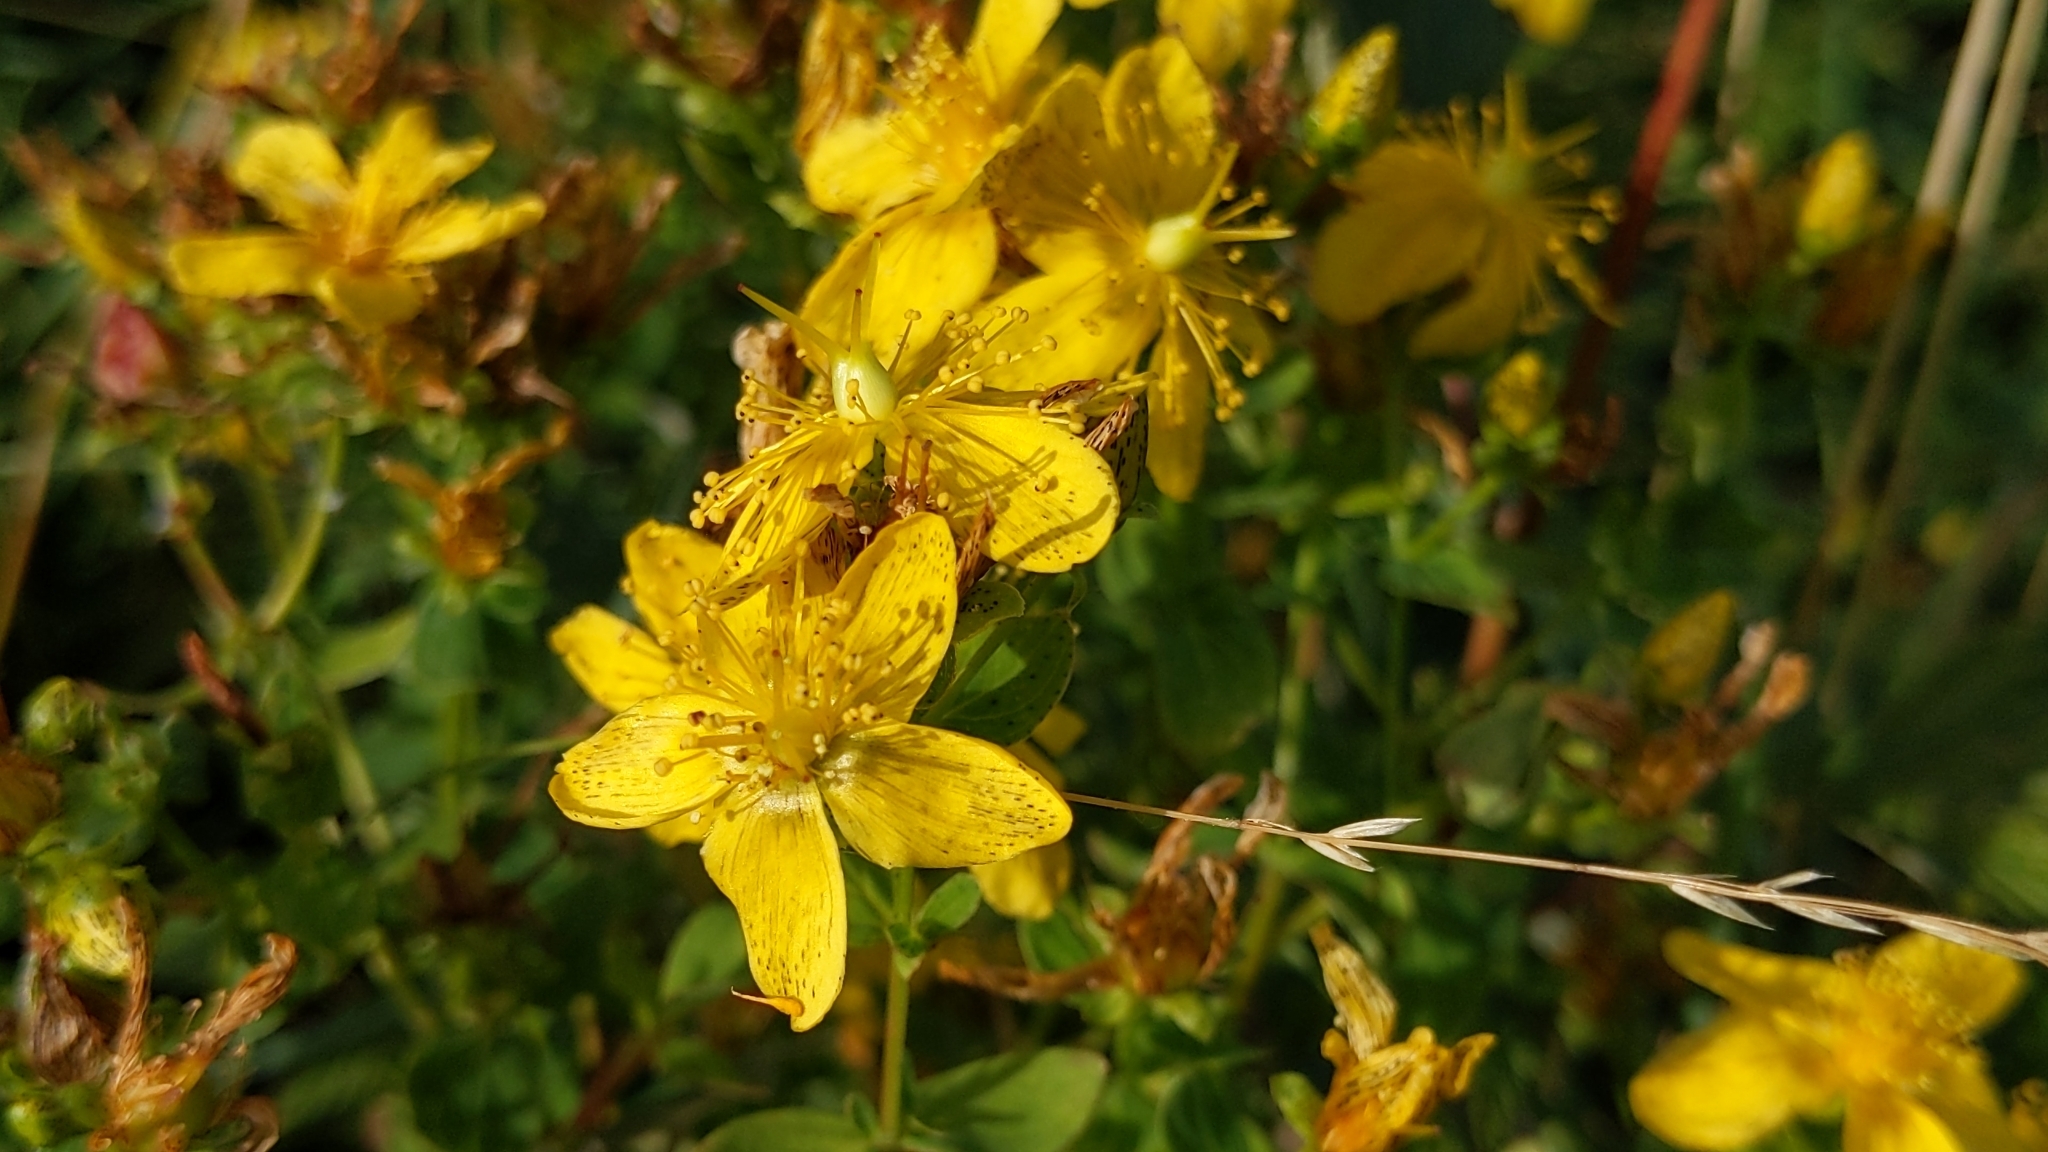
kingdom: Plantae
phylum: Tracheophyta
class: Magnoliopsida
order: Malpighiales
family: Hypericaceae
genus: Hypericum
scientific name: Hypericum maculatum
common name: Imperforate st. john's-wort
